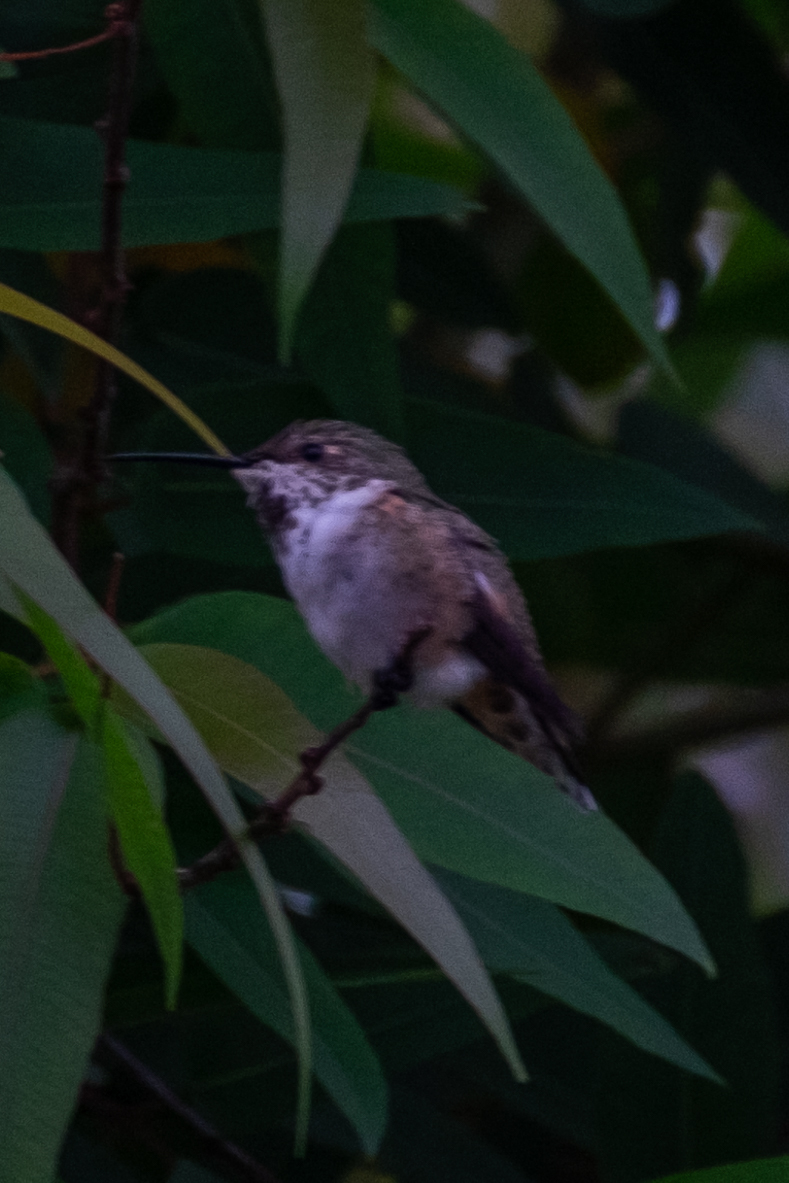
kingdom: Animalia
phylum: Chordata
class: Aves
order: Apodiformes
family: Trochilidae
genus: Selasphorus
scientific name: Selasphorus
